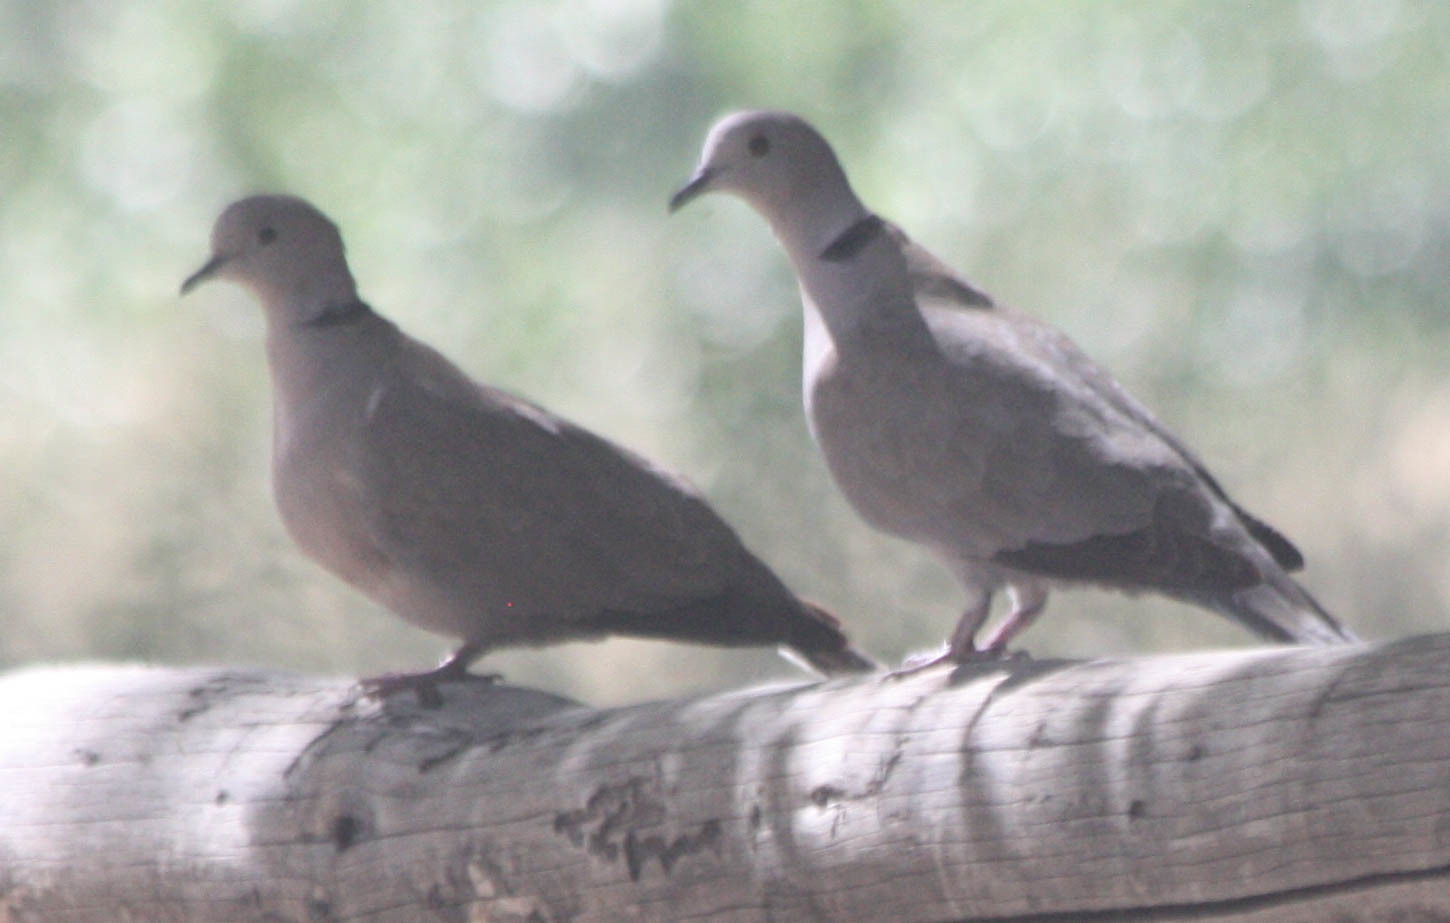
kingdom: Animalia
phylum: Chordata
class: Aves
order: Columbiformes
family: Columbidae
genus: Streptopelia
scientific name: Streptopelia decaocto
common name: Eurasian collared dove
